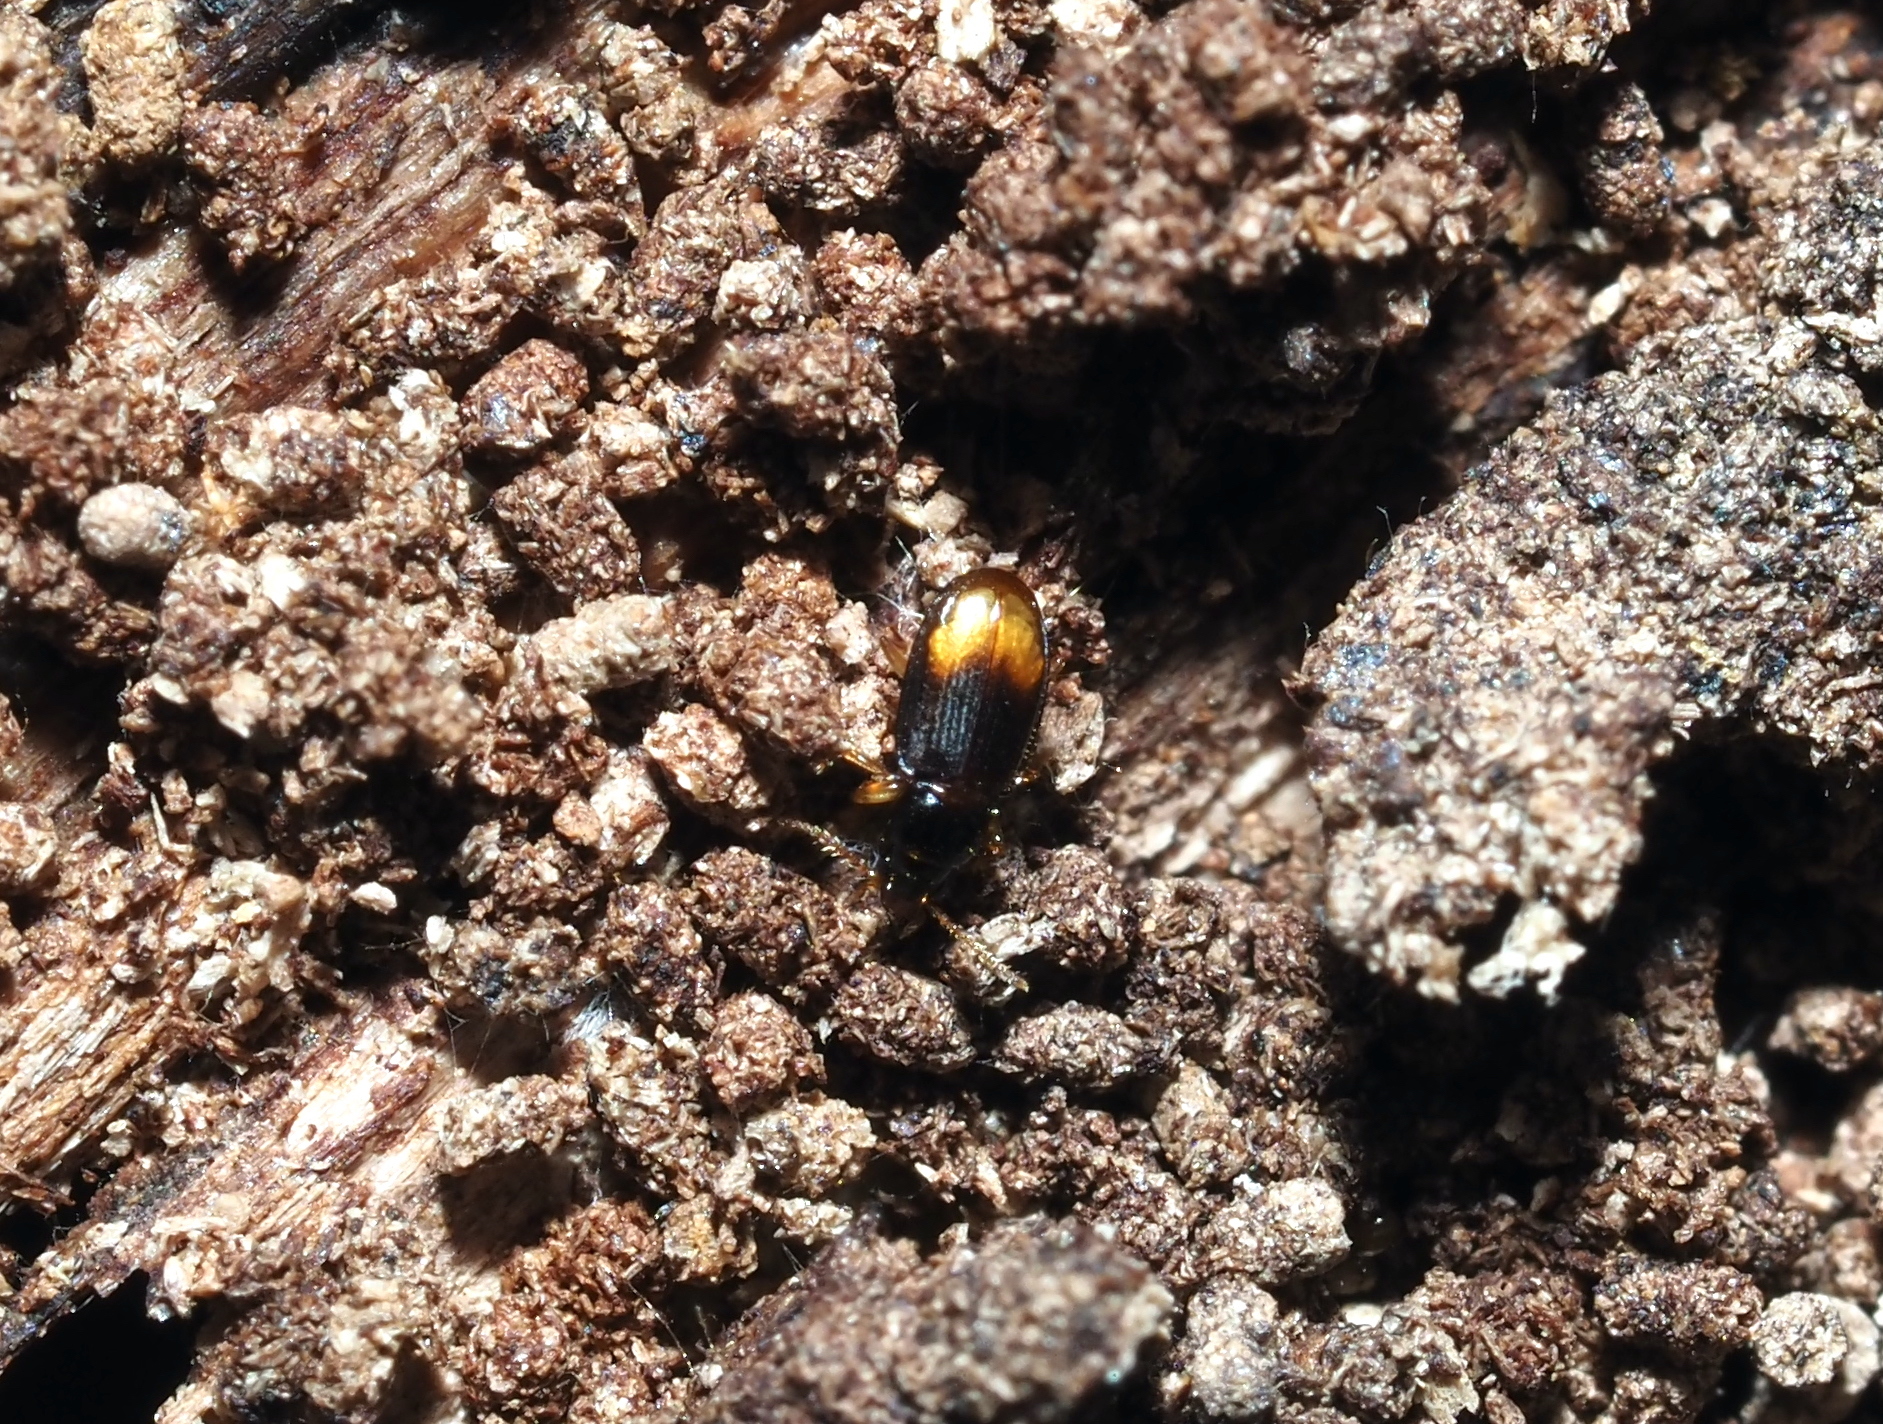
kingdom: Animalia
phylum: Arthropoda
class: Insecta
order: Coleoptera
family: Carabidae
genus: Mioptachys
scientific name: Mioptachys flavicauda
